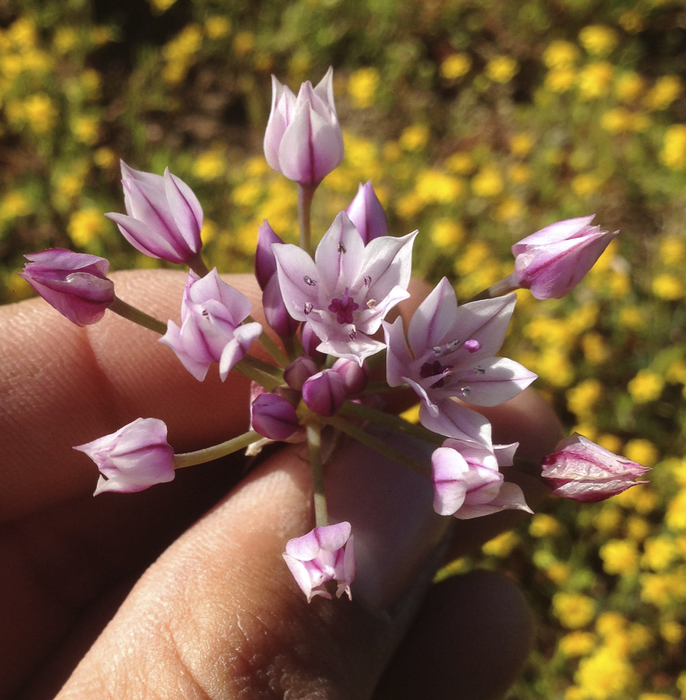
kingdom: Plantae
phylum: Tracheophyta
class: Liliopsida
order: Asparagales
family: Amaryllidaceae
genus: Allium
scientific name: Allium praecox
